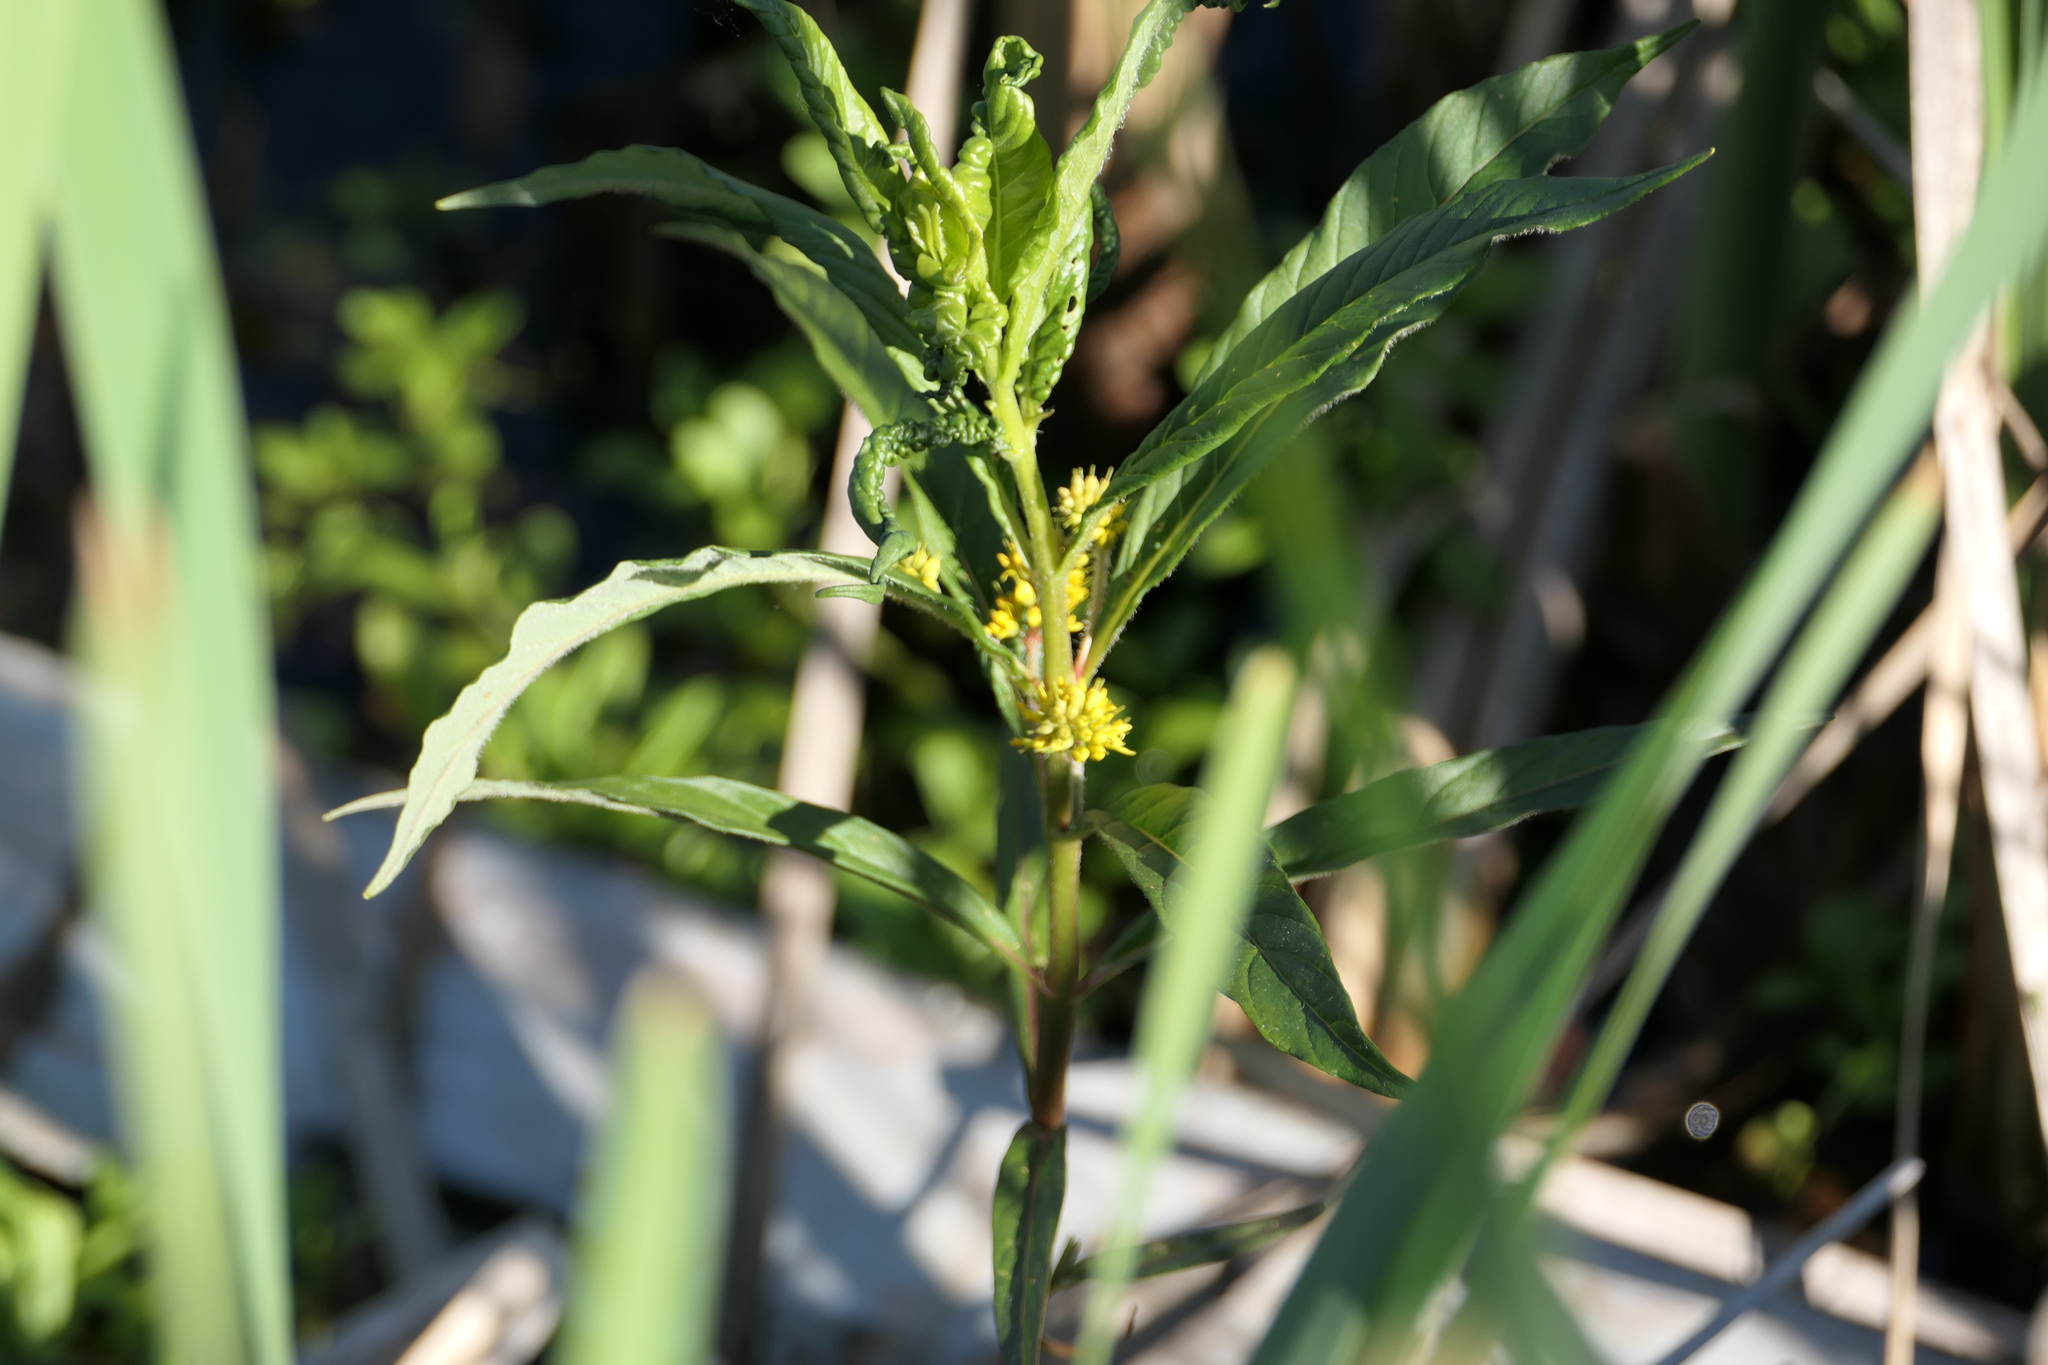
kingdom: Plantae
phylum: Tracheophyta
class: Magnoliopsida
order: Ericales
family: Primulaceae
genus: Lysimachia
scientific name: Lysimachia thyrsiflora
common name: Tufted loosestrife
